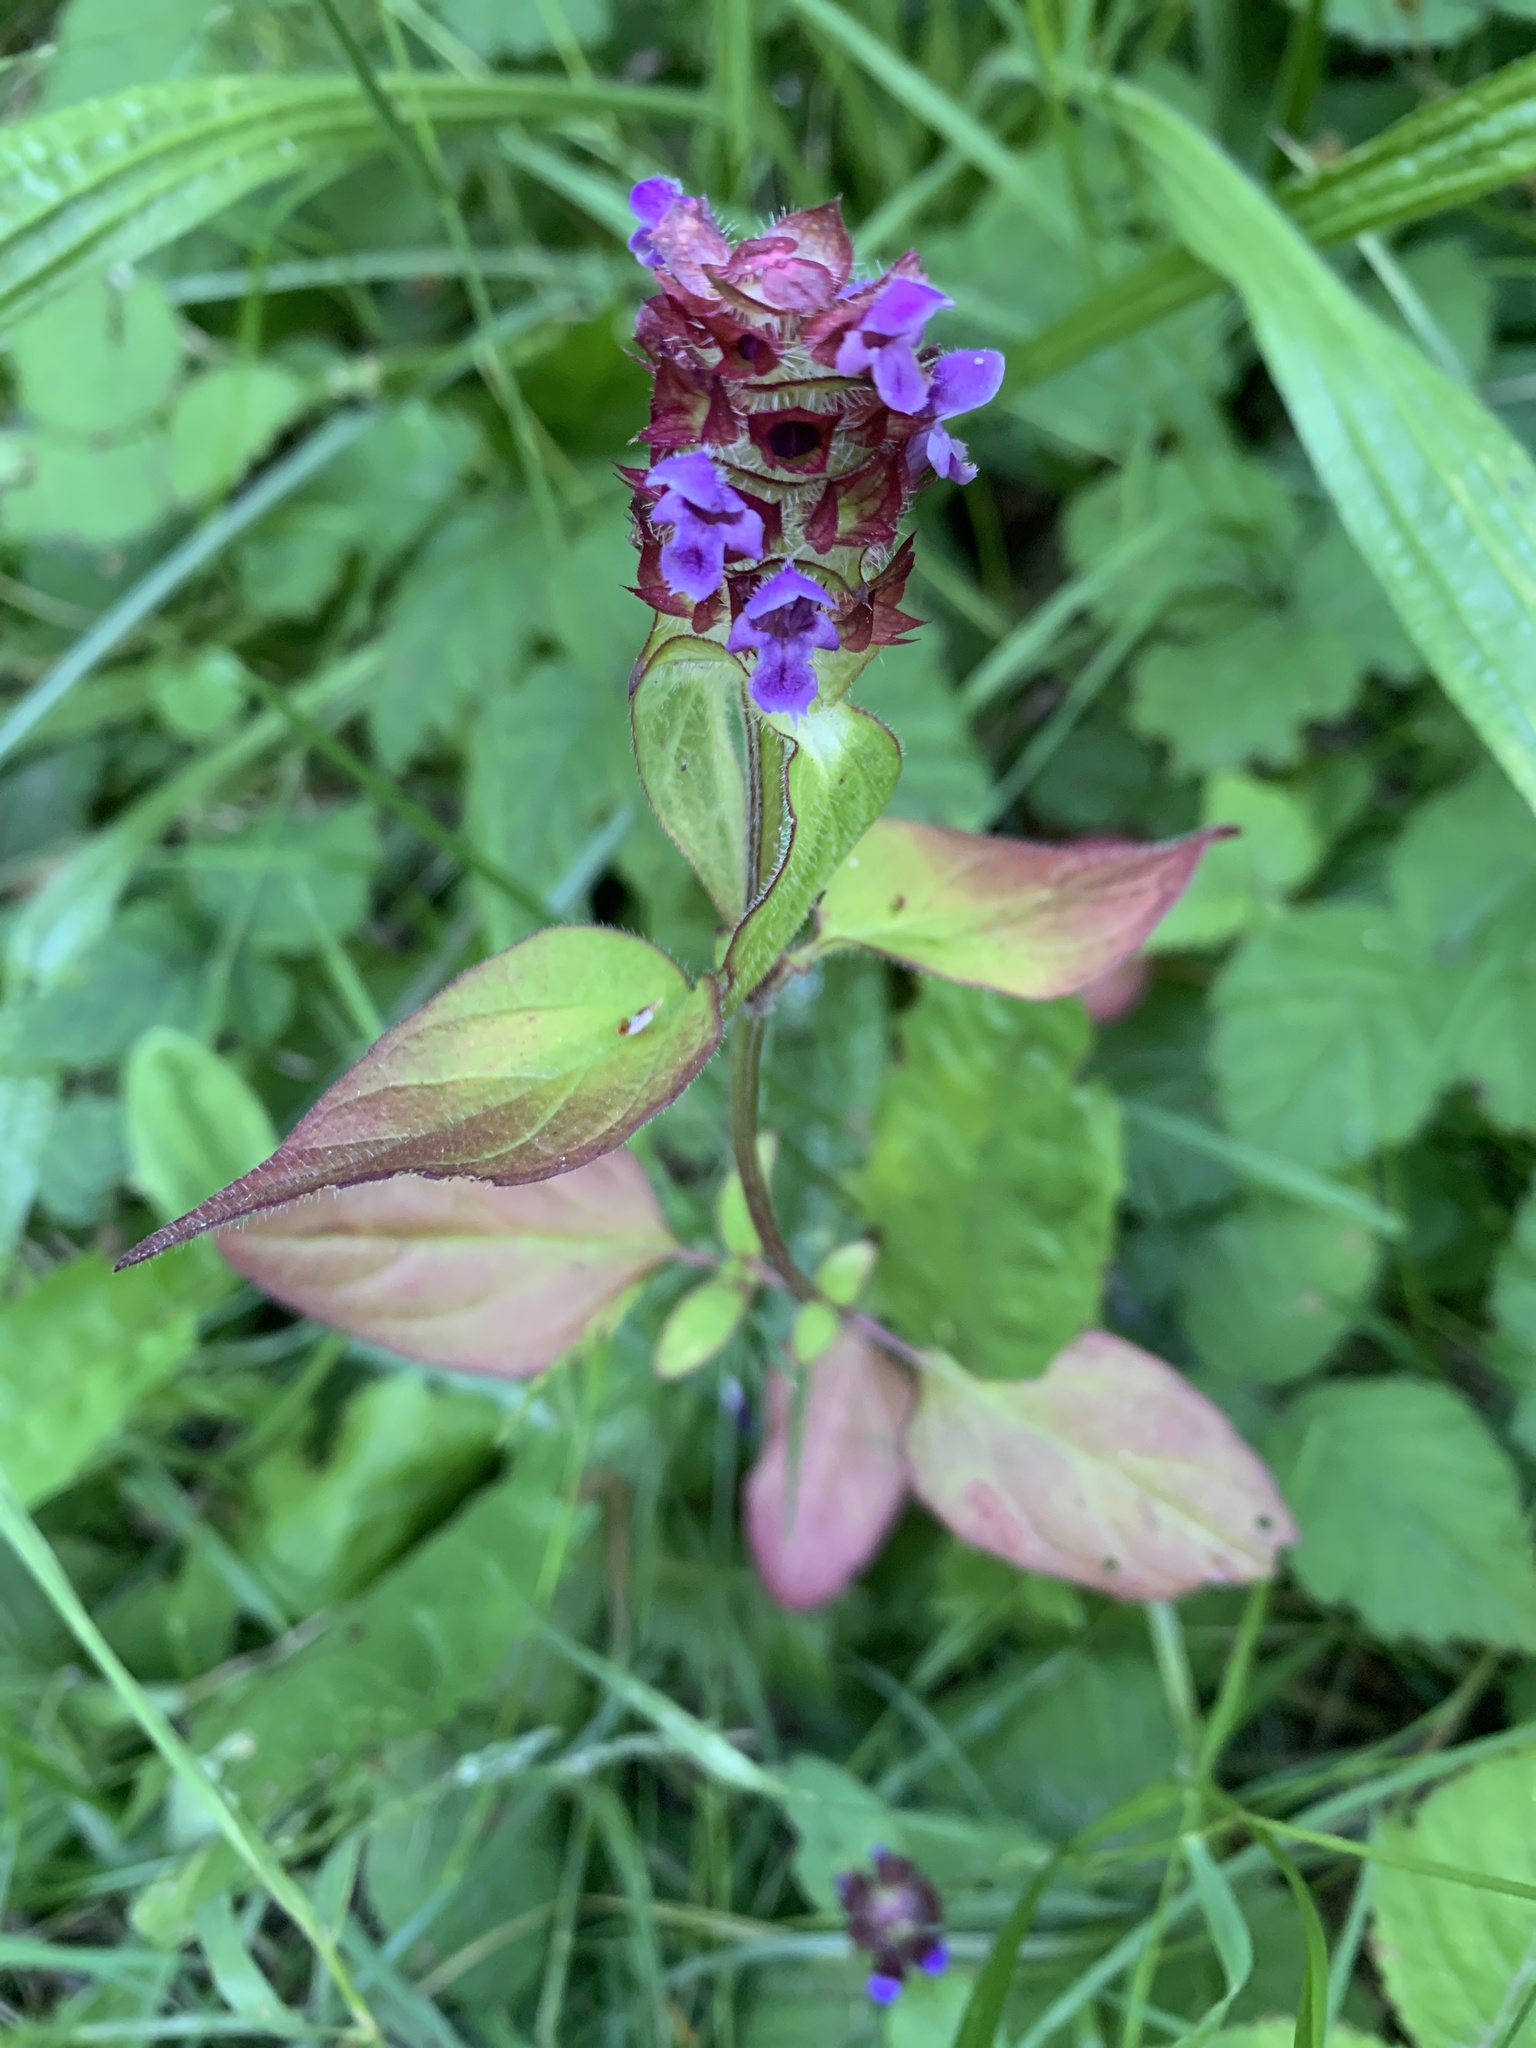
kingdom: Plantae
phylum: Tracheophyta
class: Magnoliopsida
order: Lamiales
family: Lamiaceae
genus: Prunella
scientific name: Prunella vulgaris
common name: Heal-all
